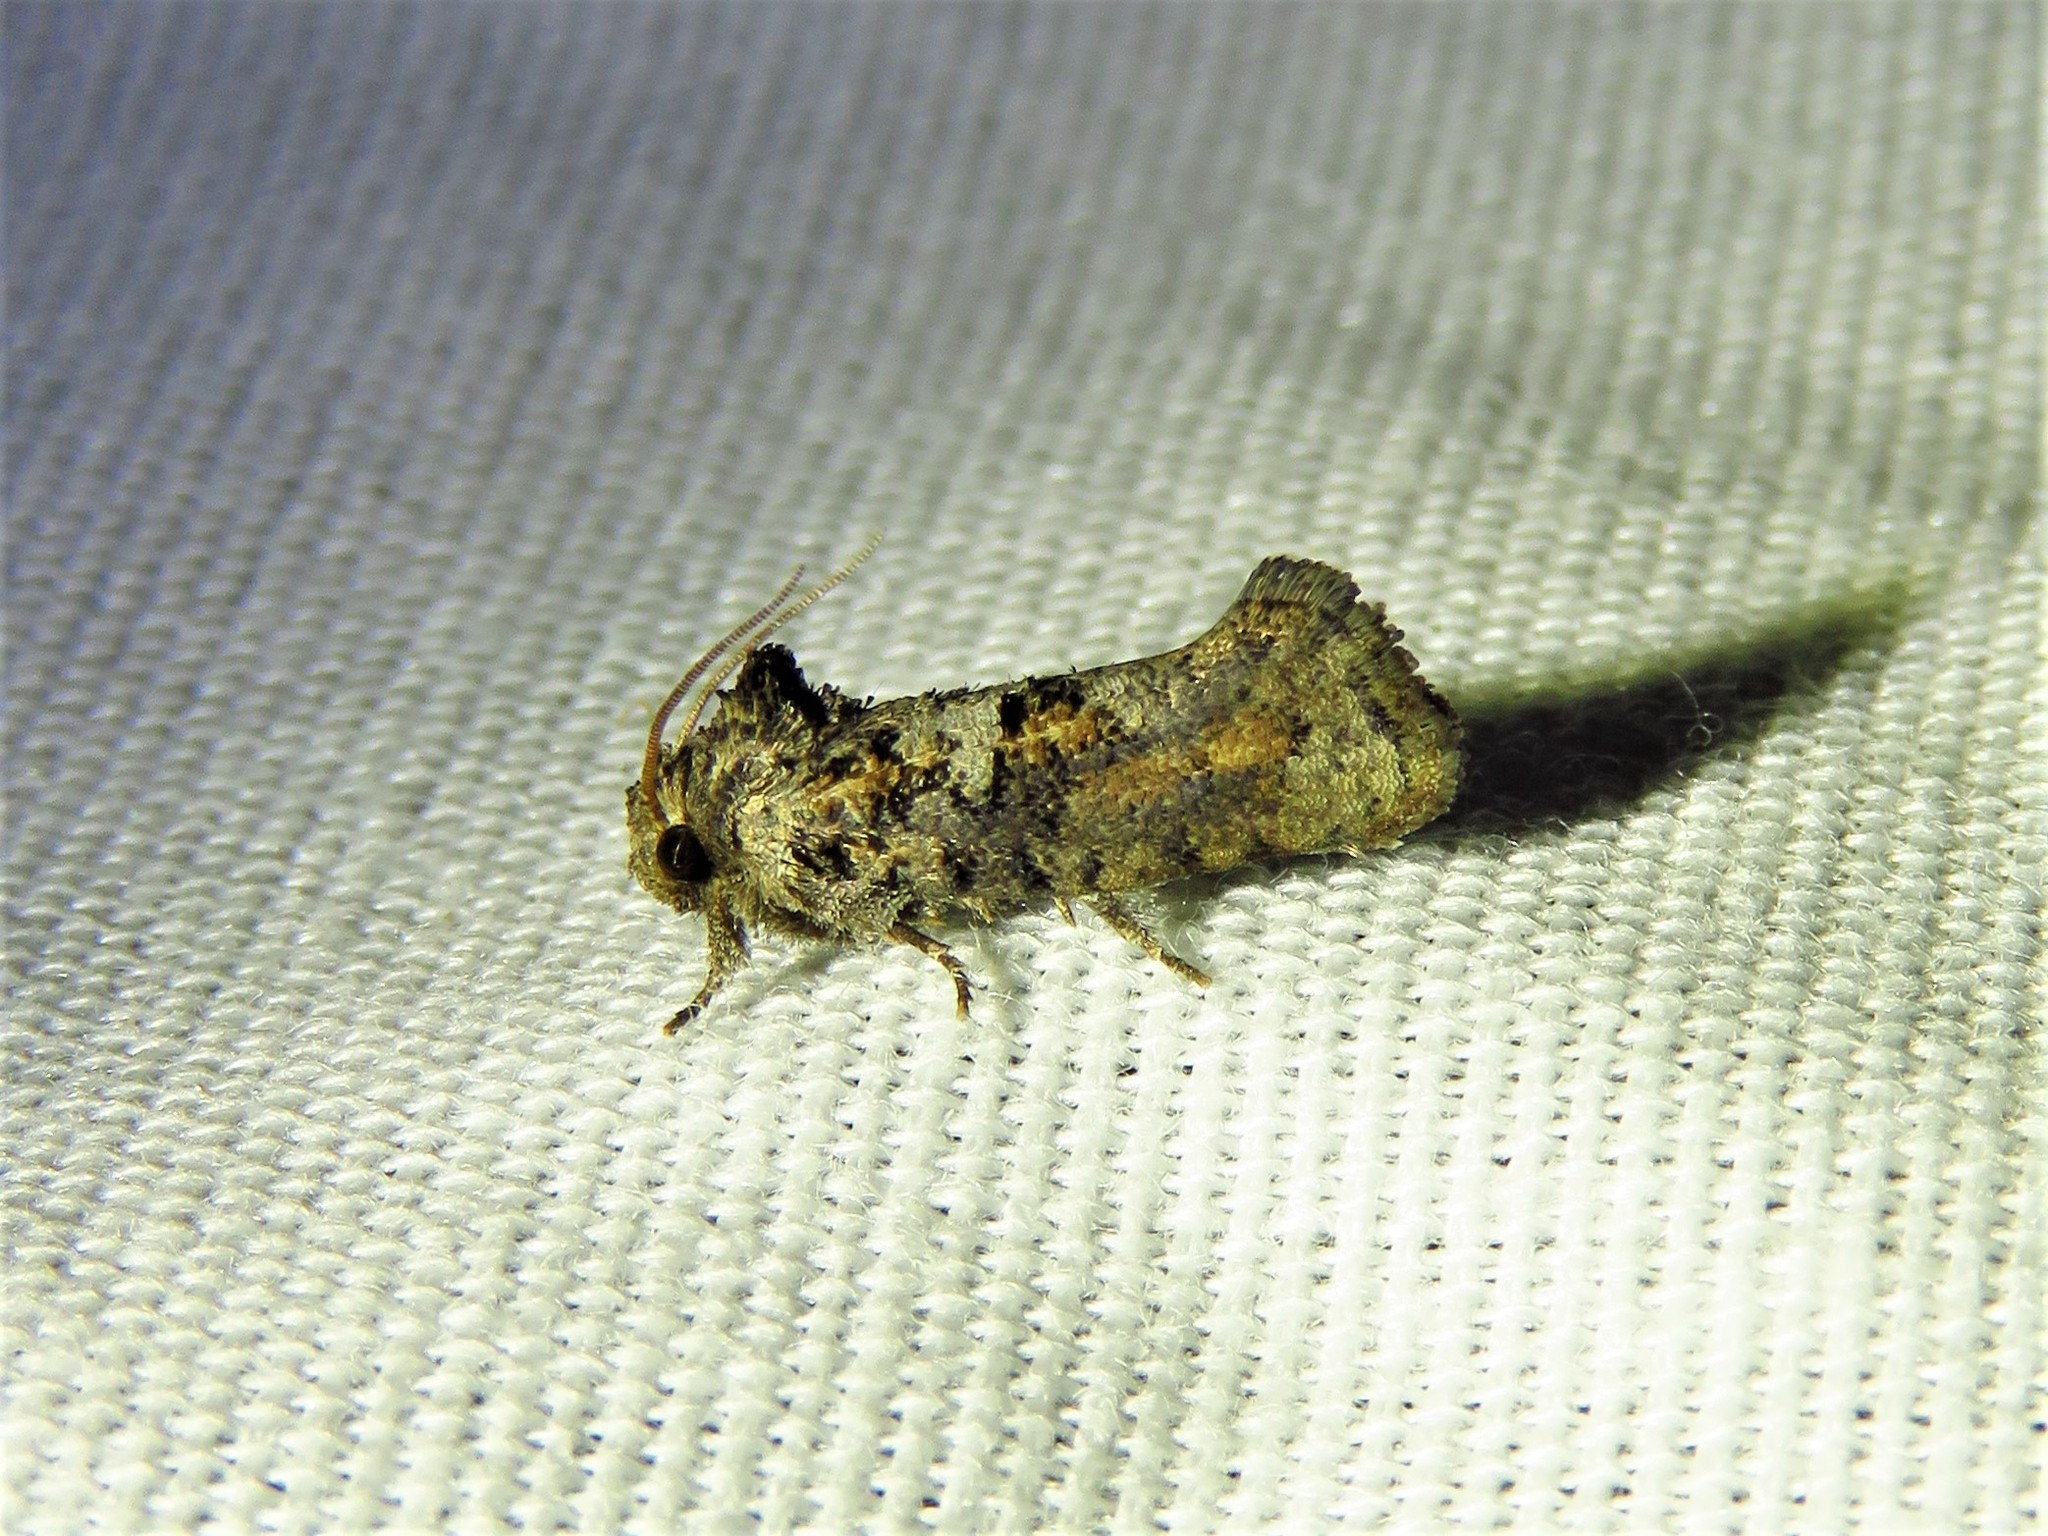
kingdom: Animalia
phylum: Arthropoda
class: Insecta
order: Lepidoptera
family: Tineidae
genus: Acrolophus
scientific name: Acrolophus piger
